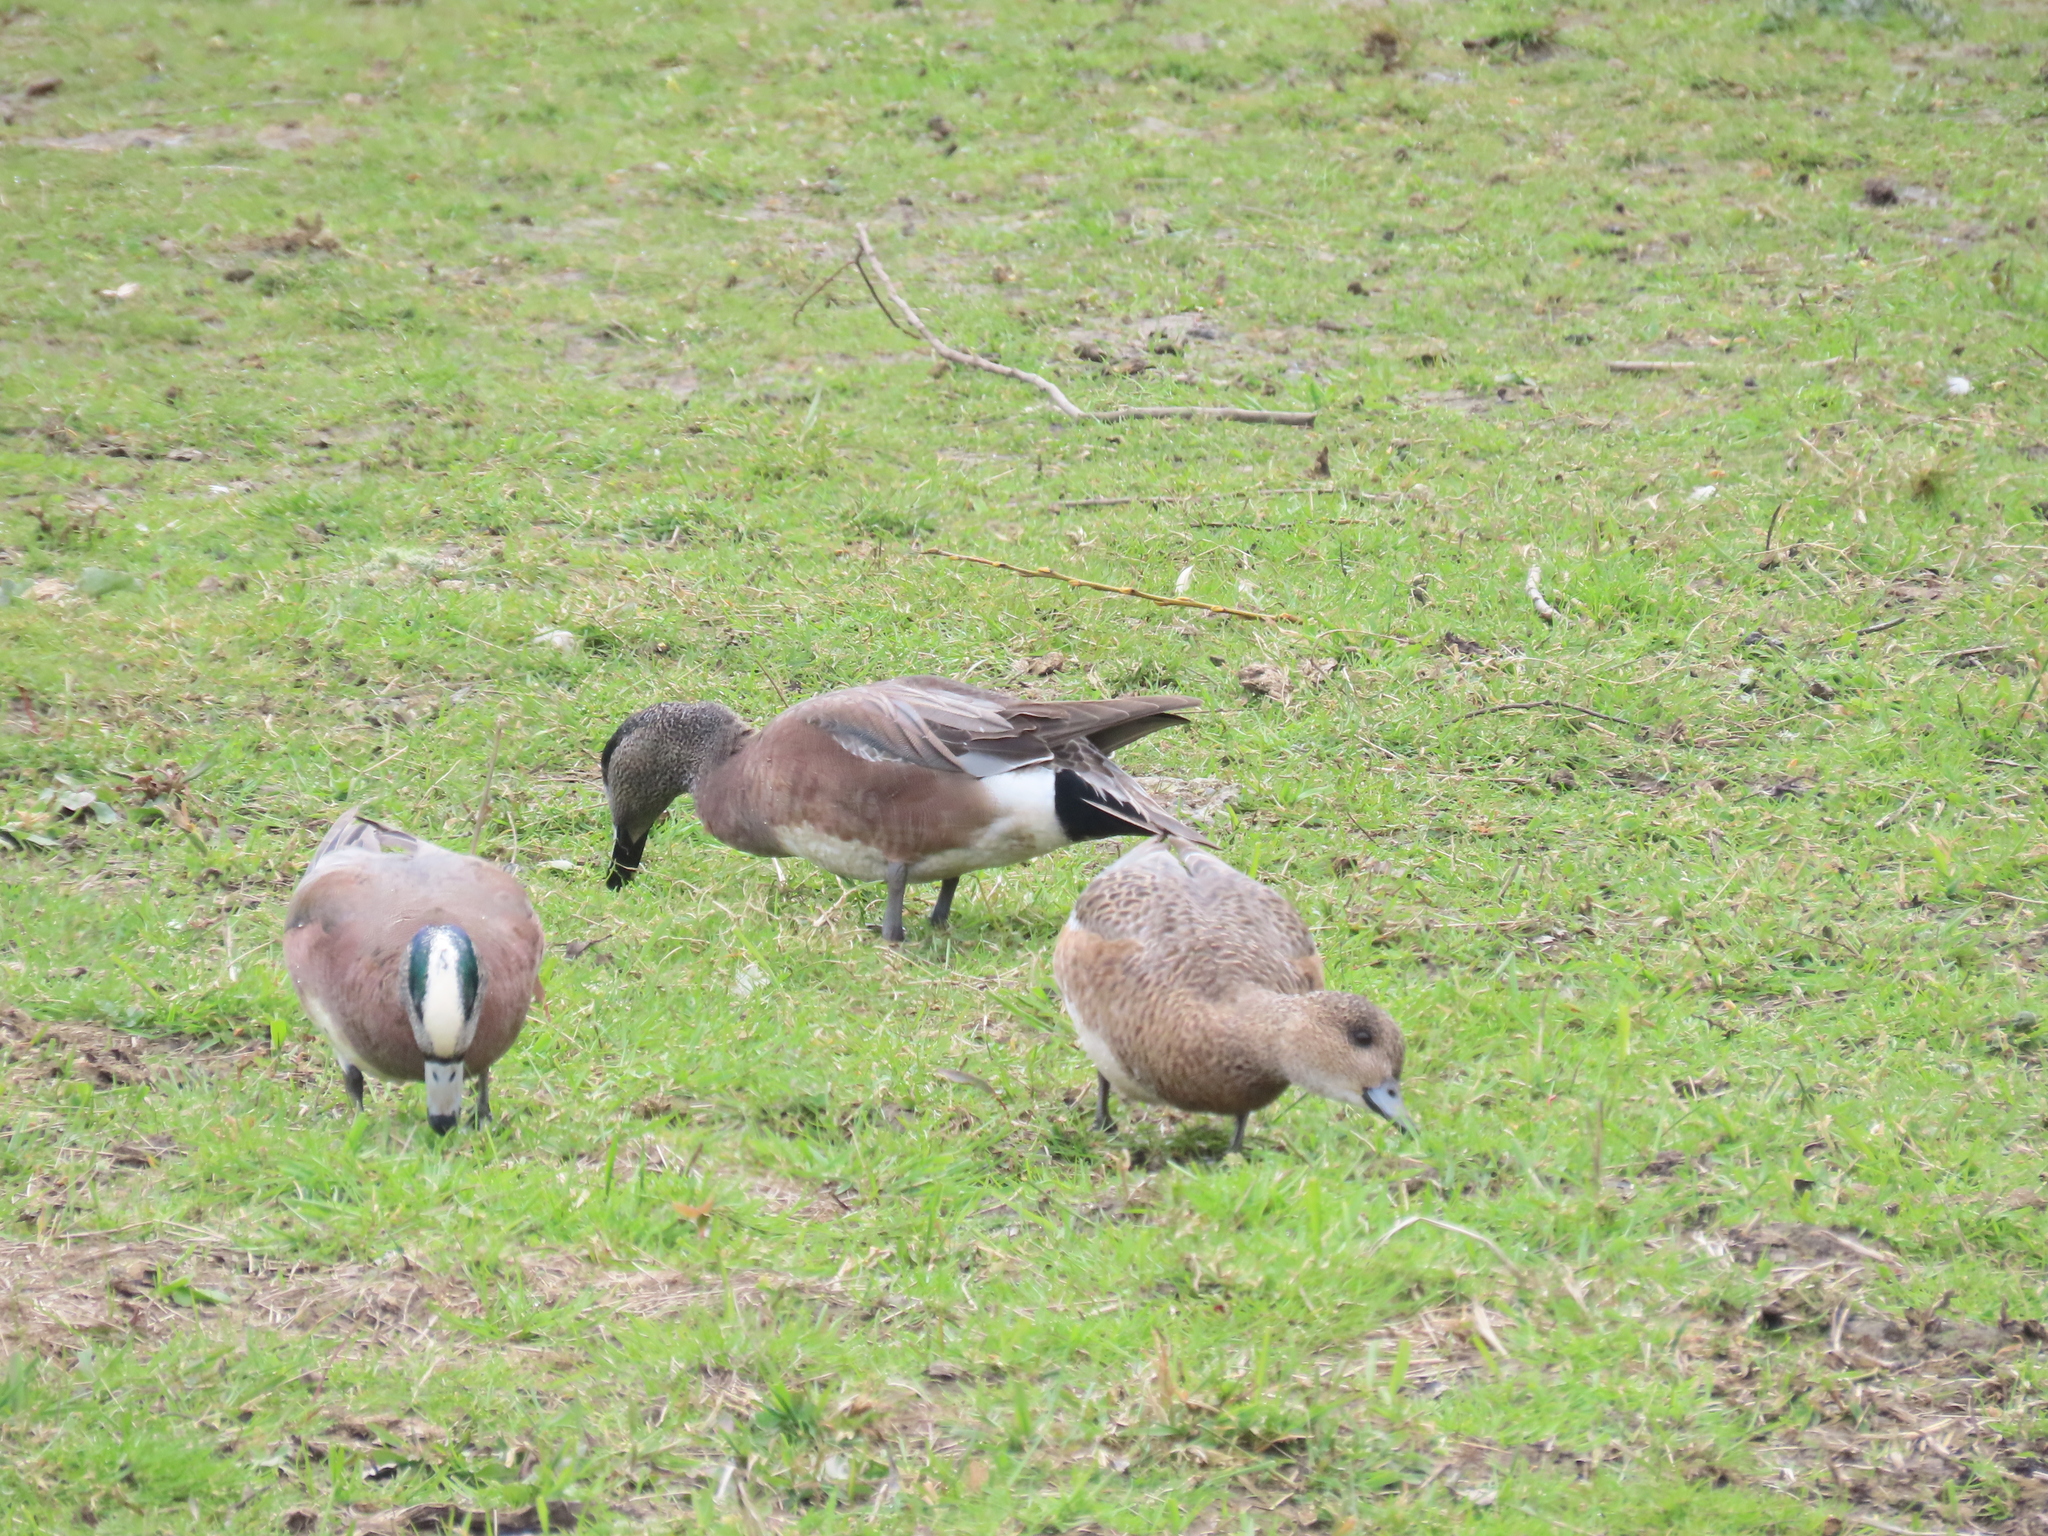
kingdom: Animalia
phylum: Chordata
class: Aves
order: Anseriformes
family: Anatidae
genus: Mareca
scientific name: Mareca americana
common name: American wigeon
